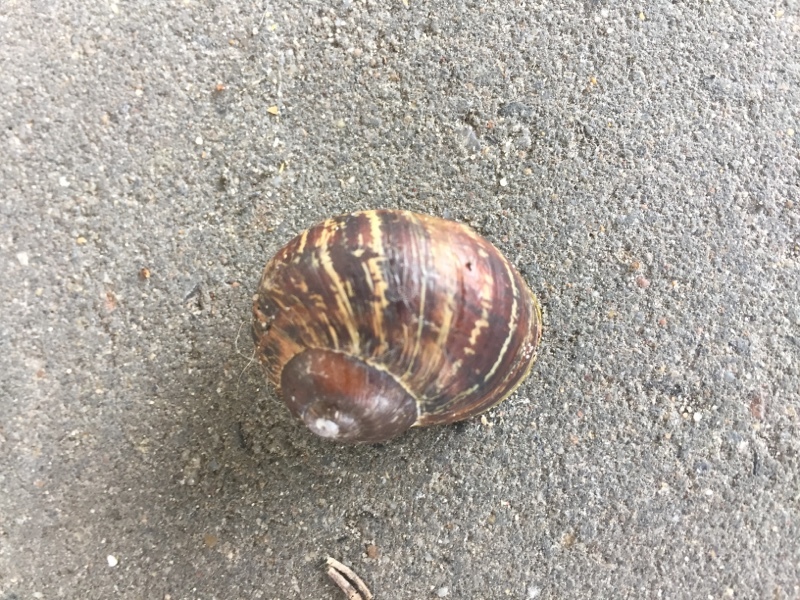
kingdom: Animalia
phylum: Mollusca
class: Gastropoda
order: Stylommatophora
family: Helicidae
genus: Cornu
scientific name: Cornu aspersum
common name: Brown garden snail
